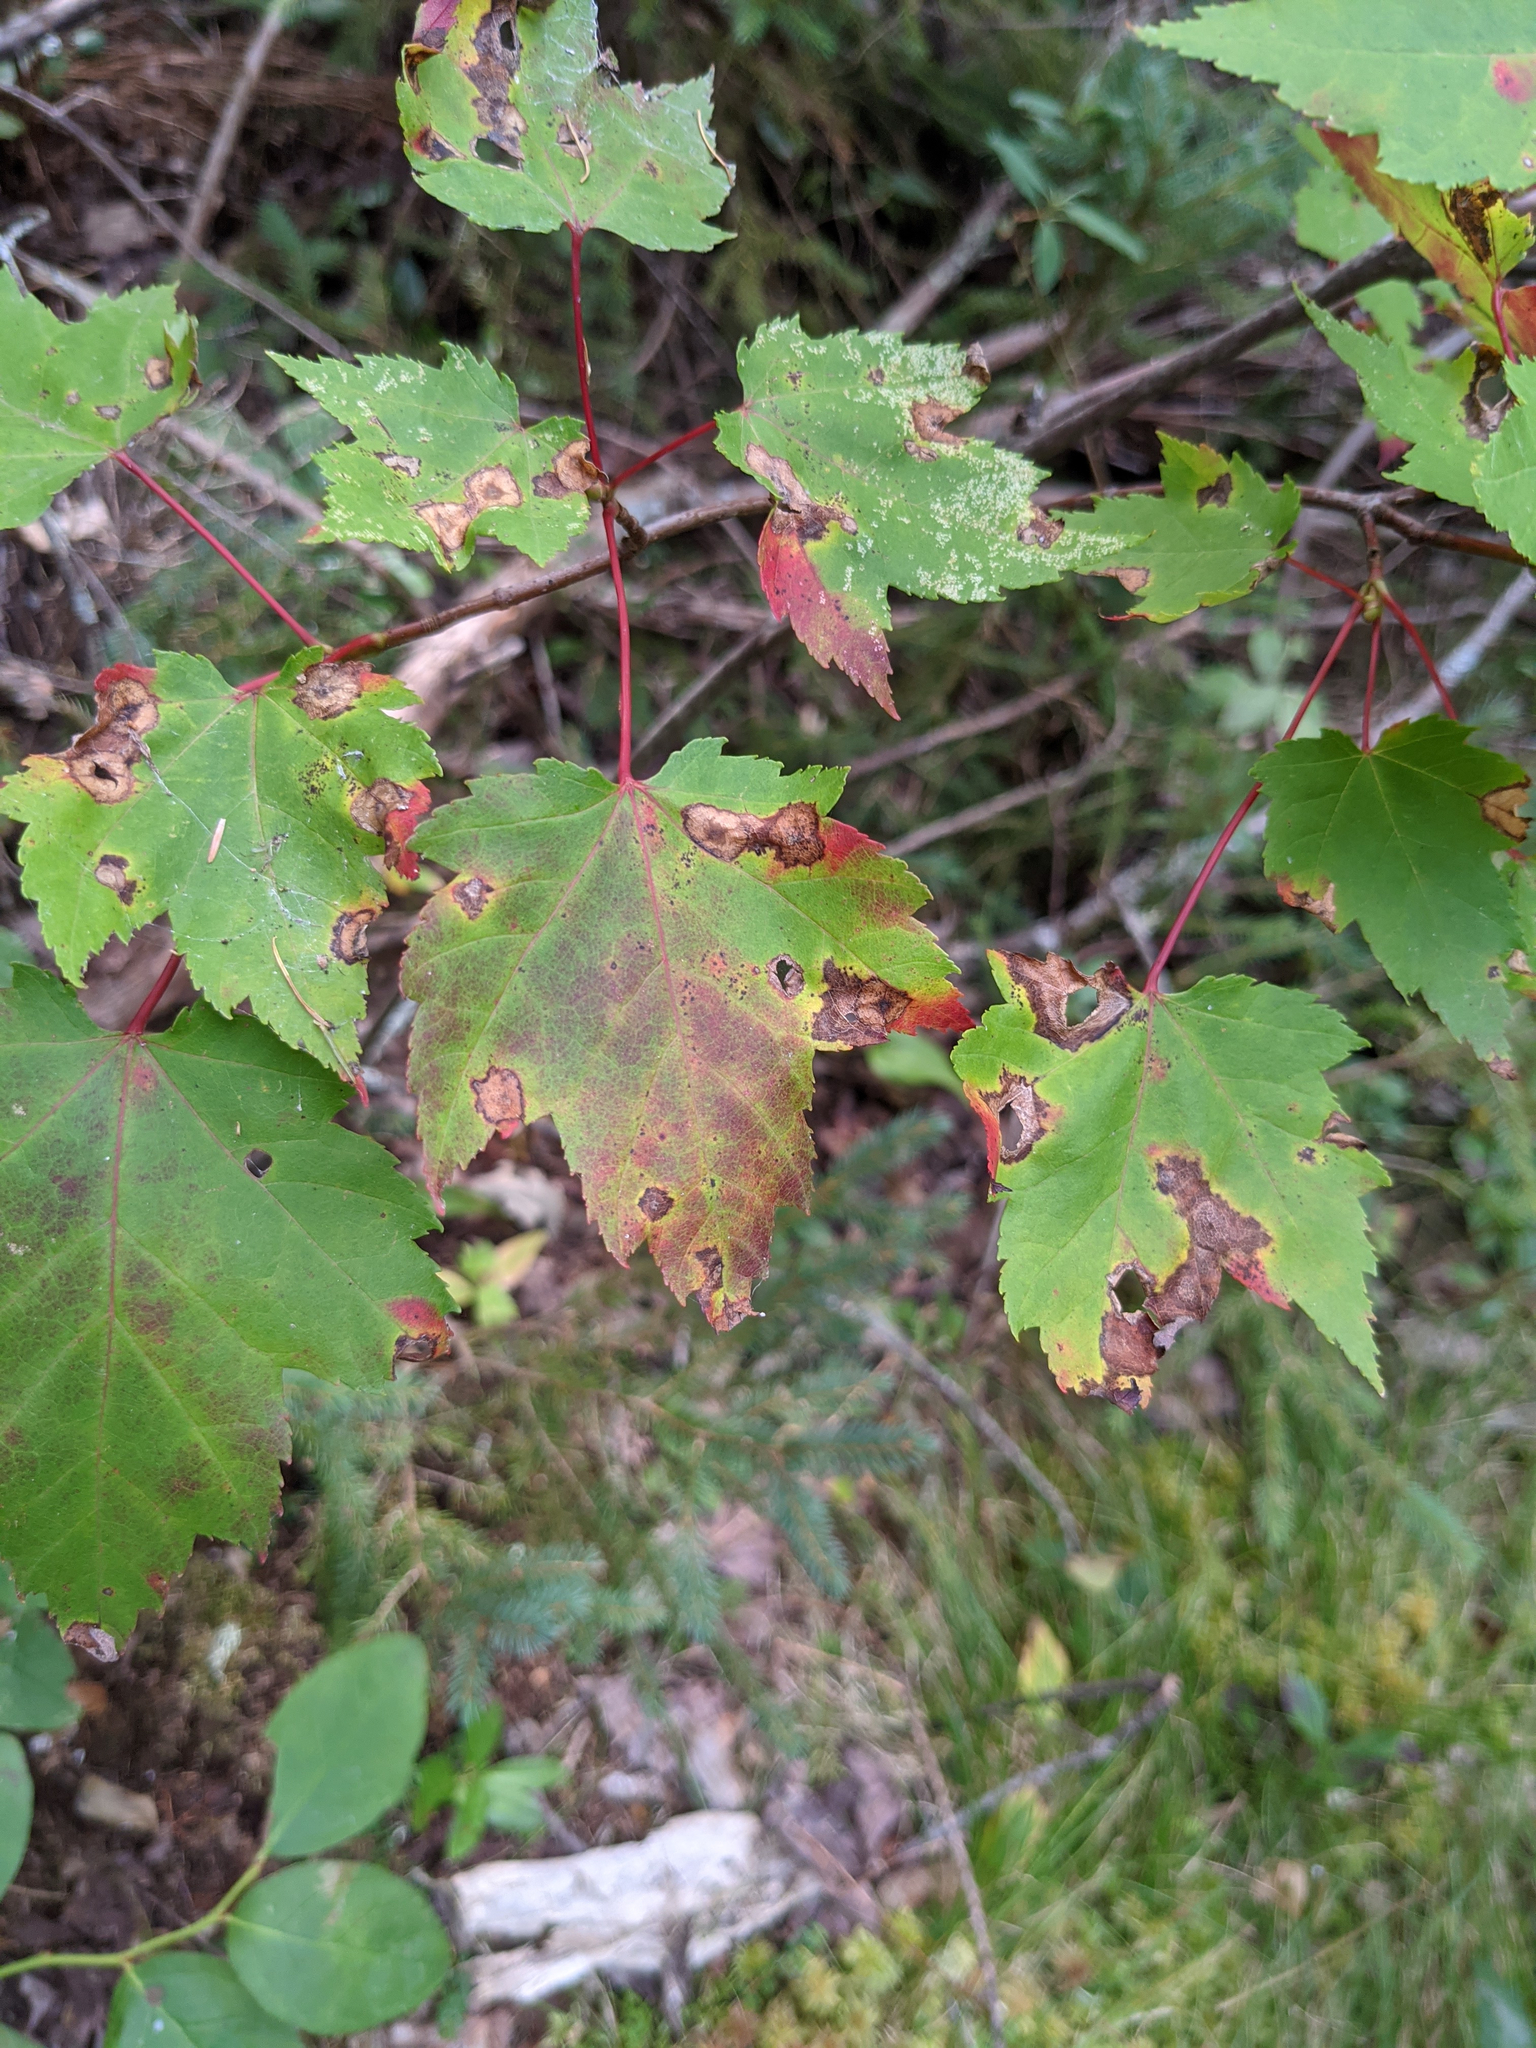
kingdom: Plantae
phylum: Tracheophyta
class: Magnoliopsida
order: Sapindales
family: Sapindaceae
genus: Acer
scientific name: Acer rubrum
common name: Red maple
